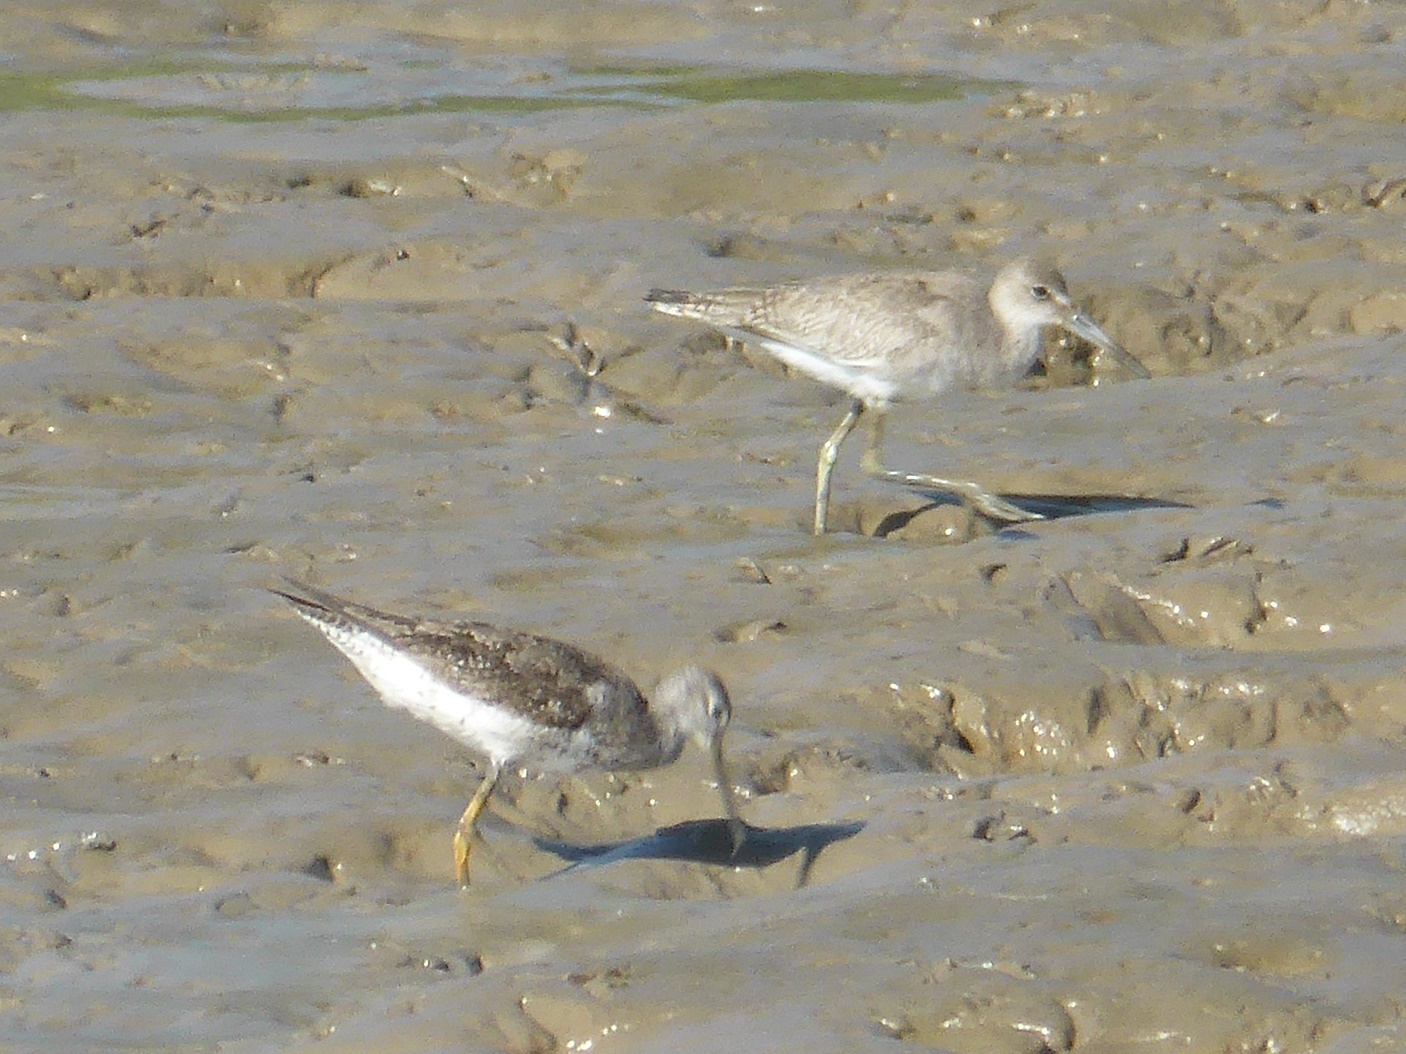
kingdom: Animalia
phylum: Chordata
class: Aves
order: Charadriiformes
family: Scolopacidae
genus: Tringa
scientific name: Tringa melanoleuca
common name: Greater yellowlegs
